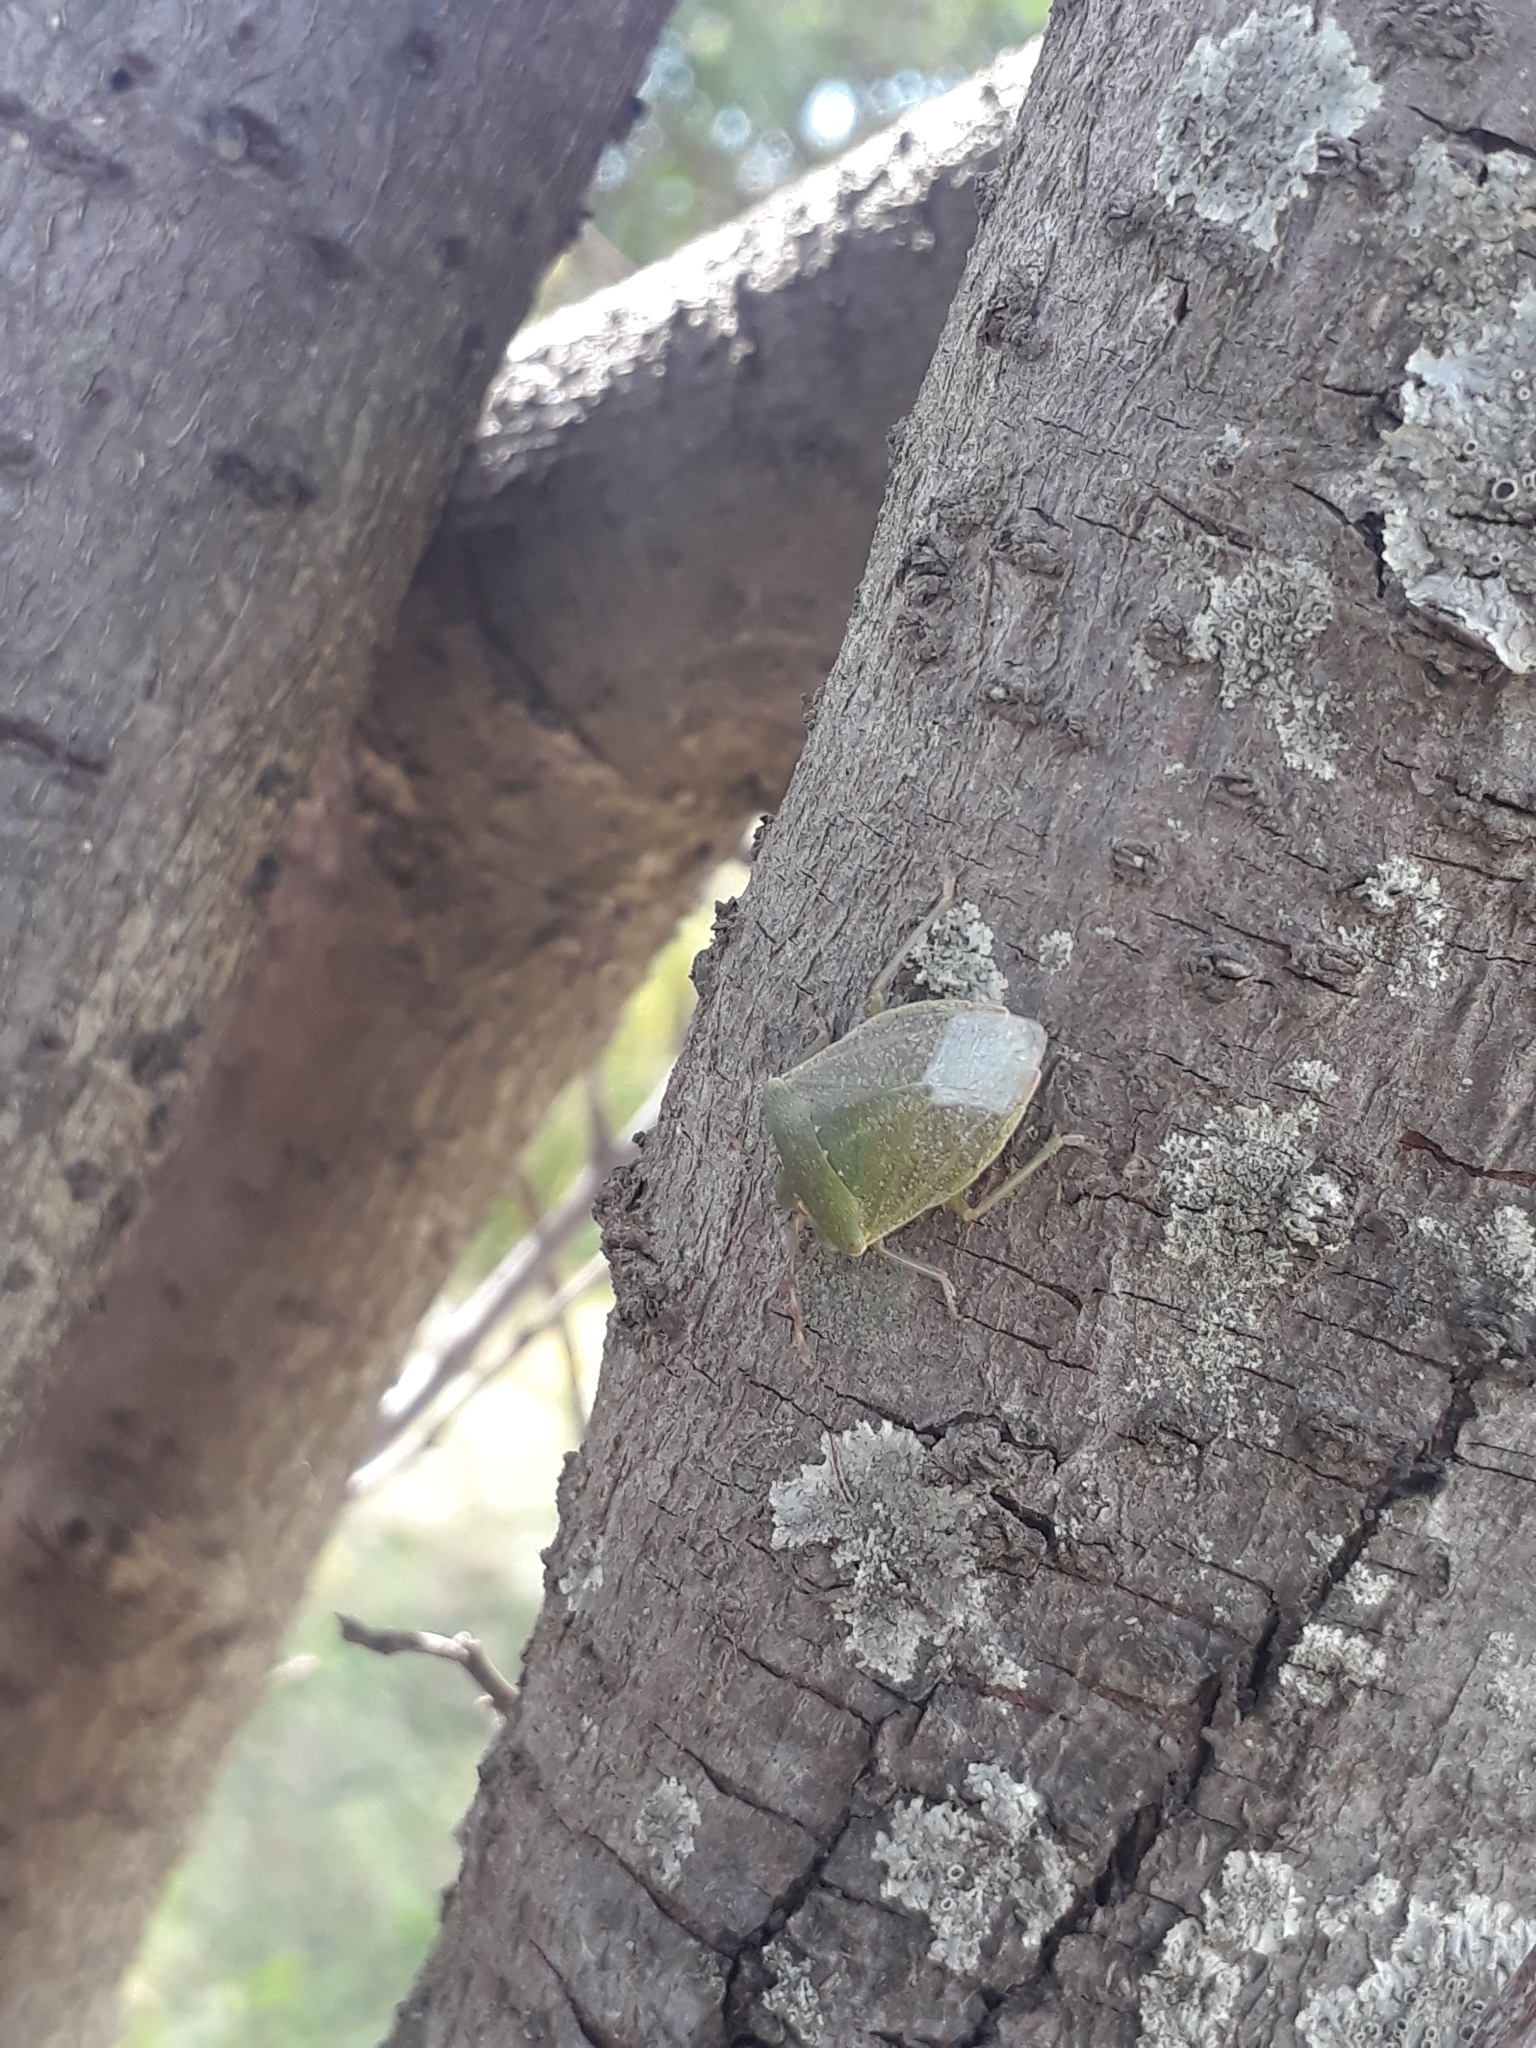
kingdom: Animalia
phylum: Arthropoda
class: Insecta
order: Hemiptera
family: Pentatomidae
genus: Nezara
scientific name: Nezara viridula
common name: Southern green stink bug
